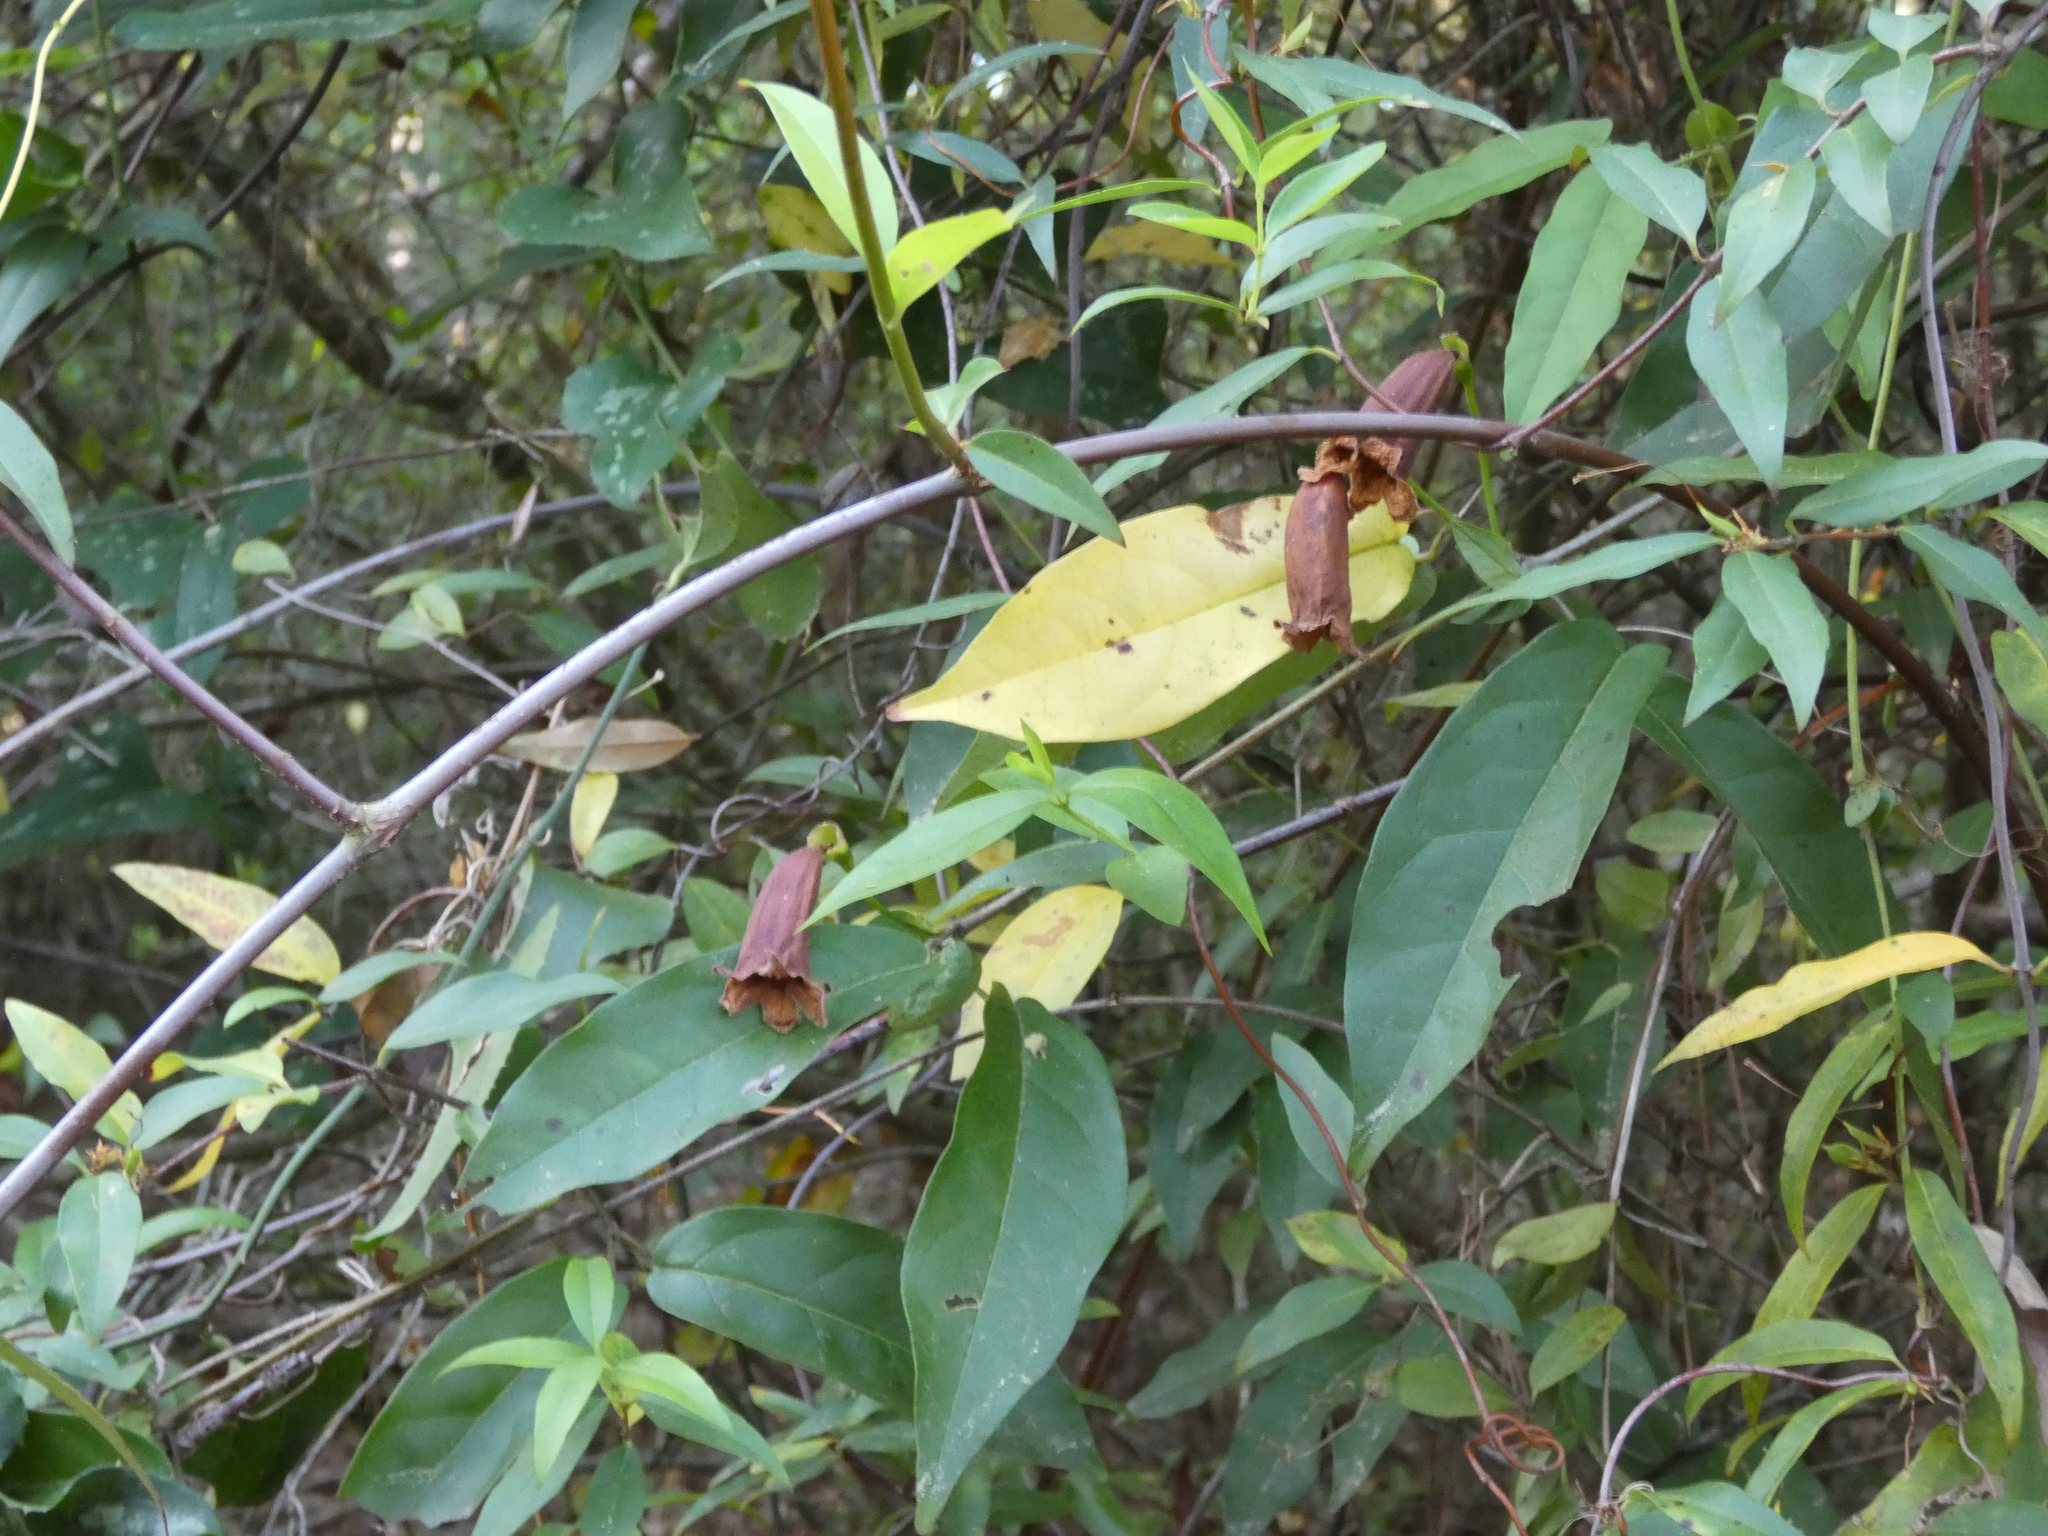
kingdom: Plantae
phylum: Tracheophyta
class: Magnoliopsida
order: Lamiales
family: Bignoniaceae
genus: Bignonia
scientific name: Bignonia capreolata
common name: Crossvine
